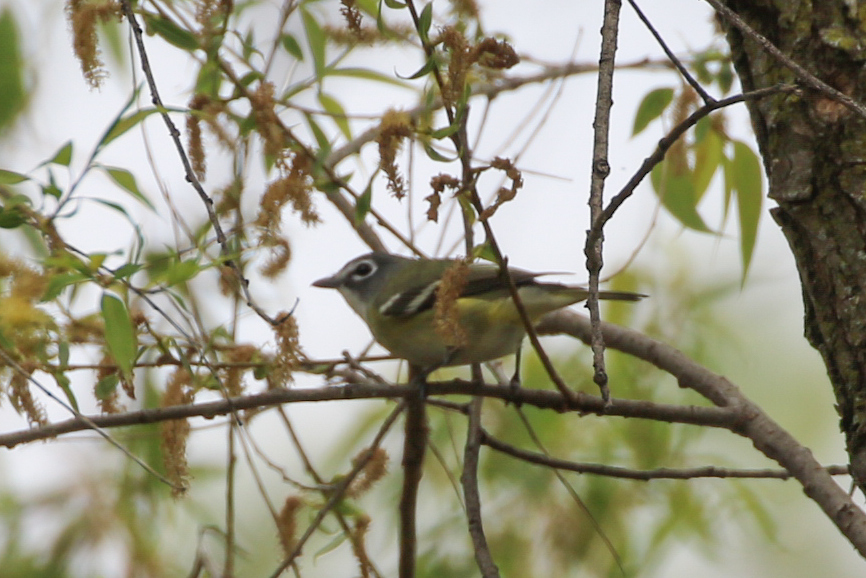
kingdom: Animalia
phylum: Chordata
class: Aves
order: Passeriformes
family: Vireonidae
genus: Vireo
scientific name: Vireo solitarius
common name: Blue-headed vireo
